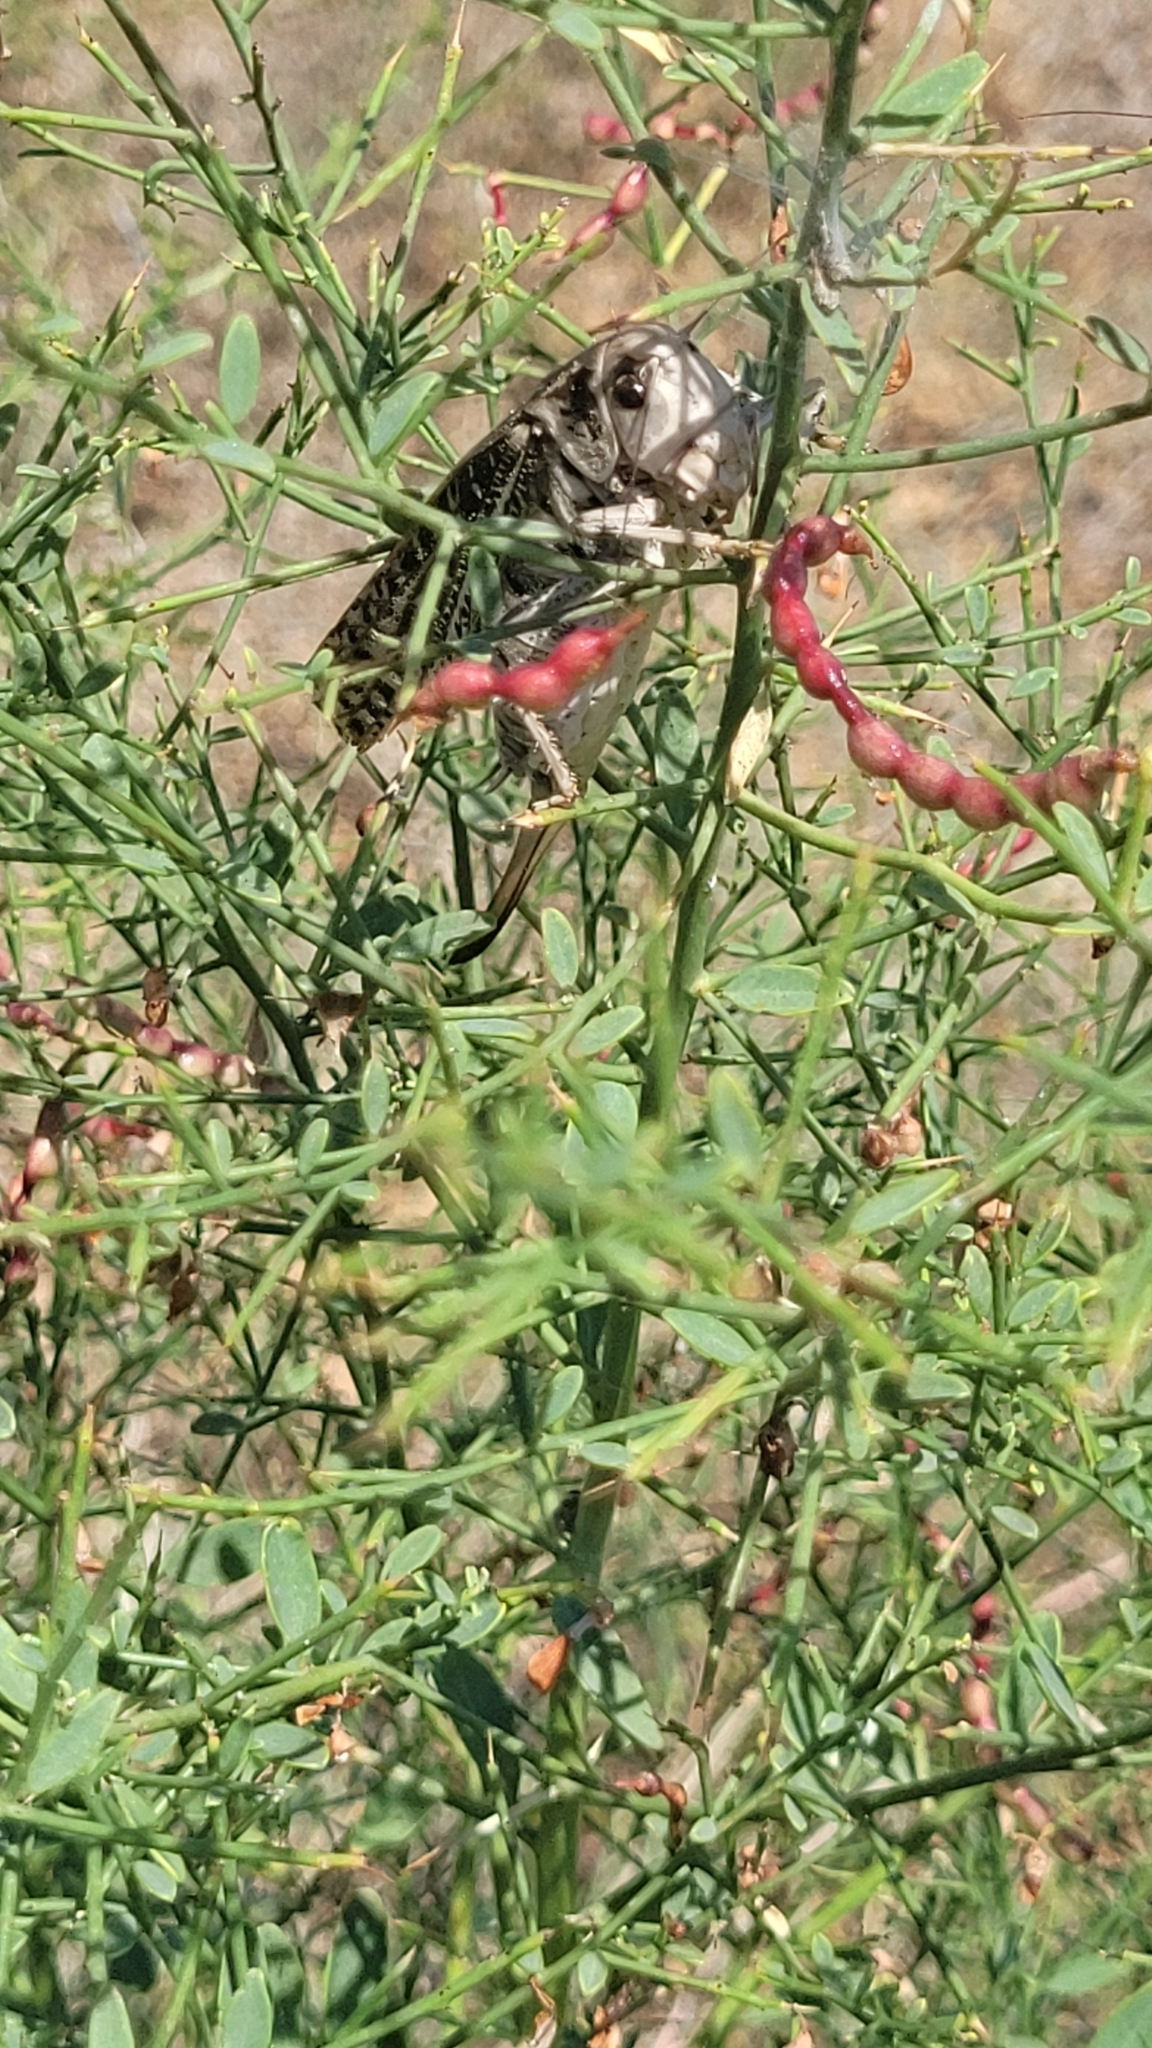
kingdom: Animalia
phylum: Arthropoda
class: Insecta
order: Orthoptera
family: Tettigoniidae
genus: Decticus
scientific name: Decticus verrucivorus
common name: Wart-biter
